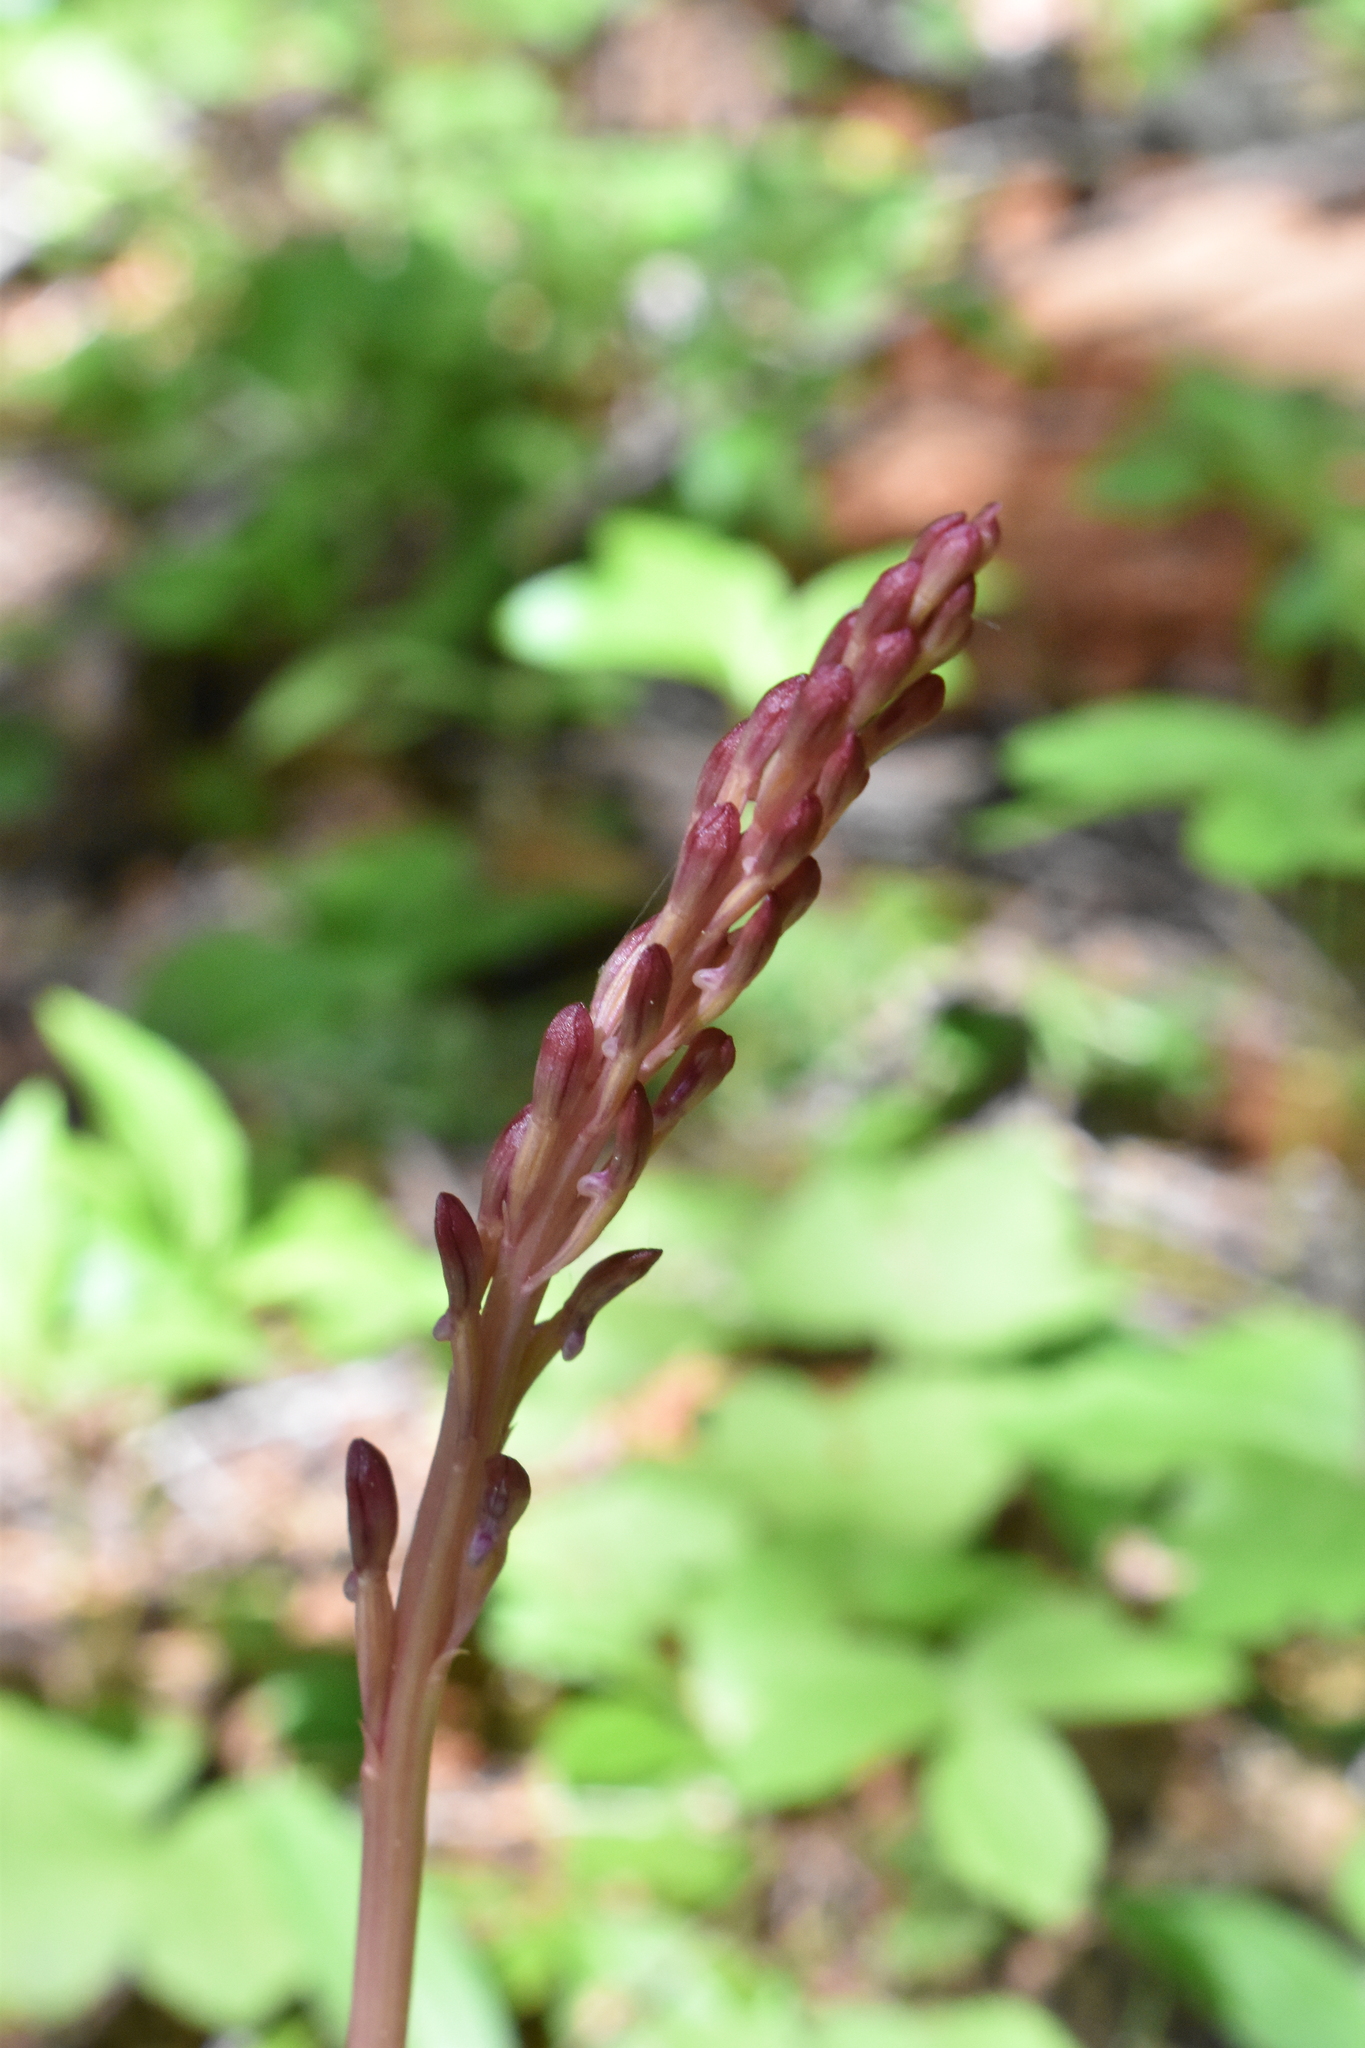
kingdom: Plantae
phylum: Tracheophyta
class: Liliopsida
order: Asparagales
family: Orchidaceae
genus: Corallorhiza
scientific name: Corallorhiza mertensiana
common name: Pacific coralroot
